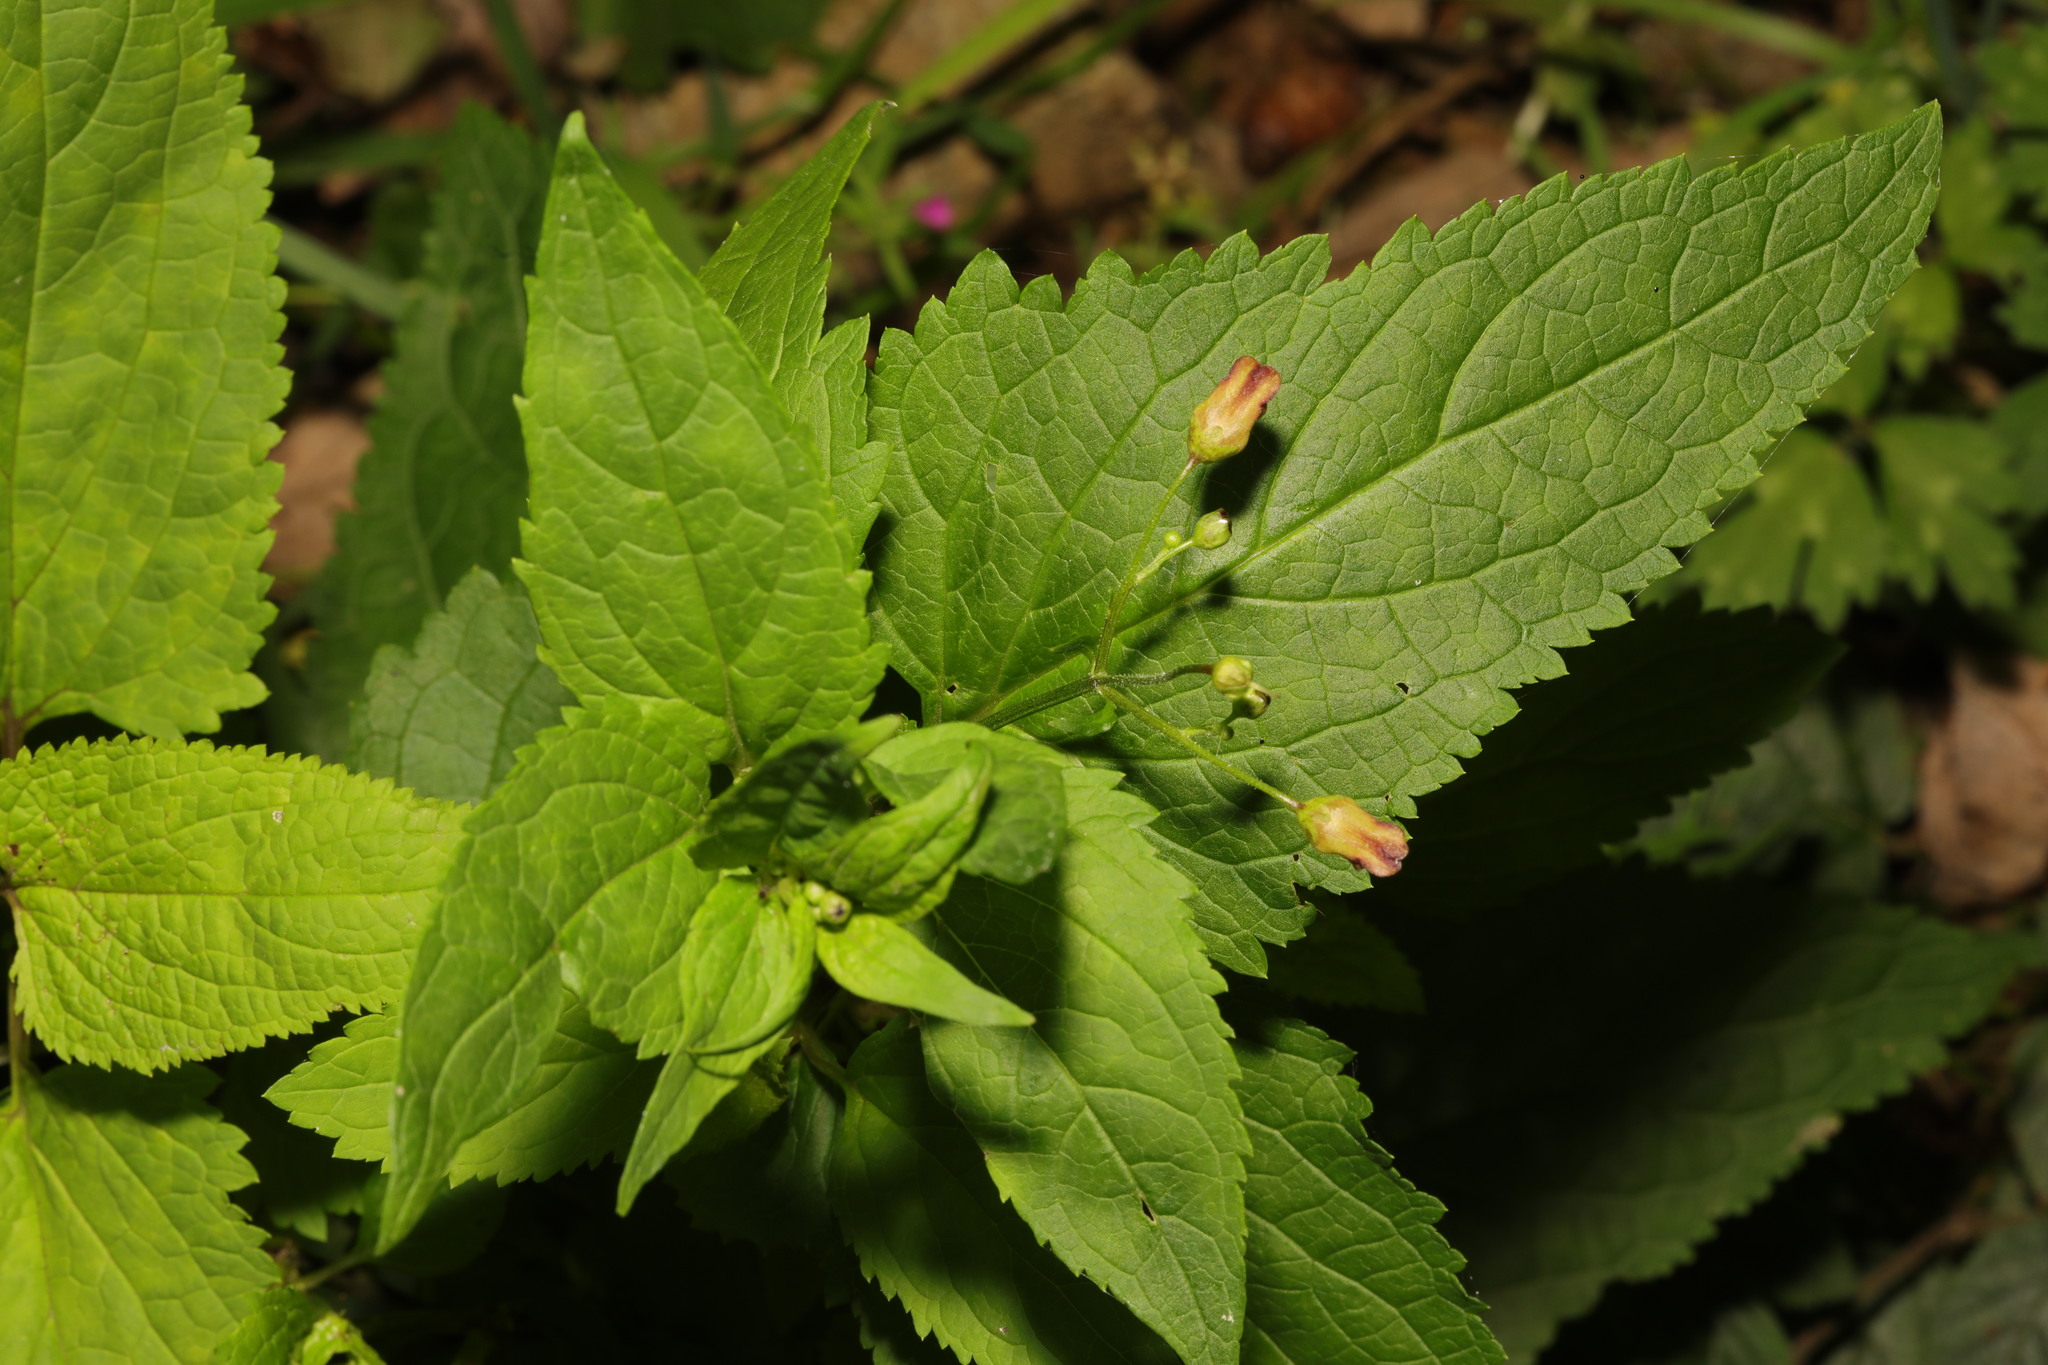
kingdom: Plantae
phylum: Tracheophyta
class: Magnoliopsida
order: Lamiales
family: Scrophulariaceae
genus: Scrophularia
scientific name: Scrophularia nodosa
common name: Common figwort
